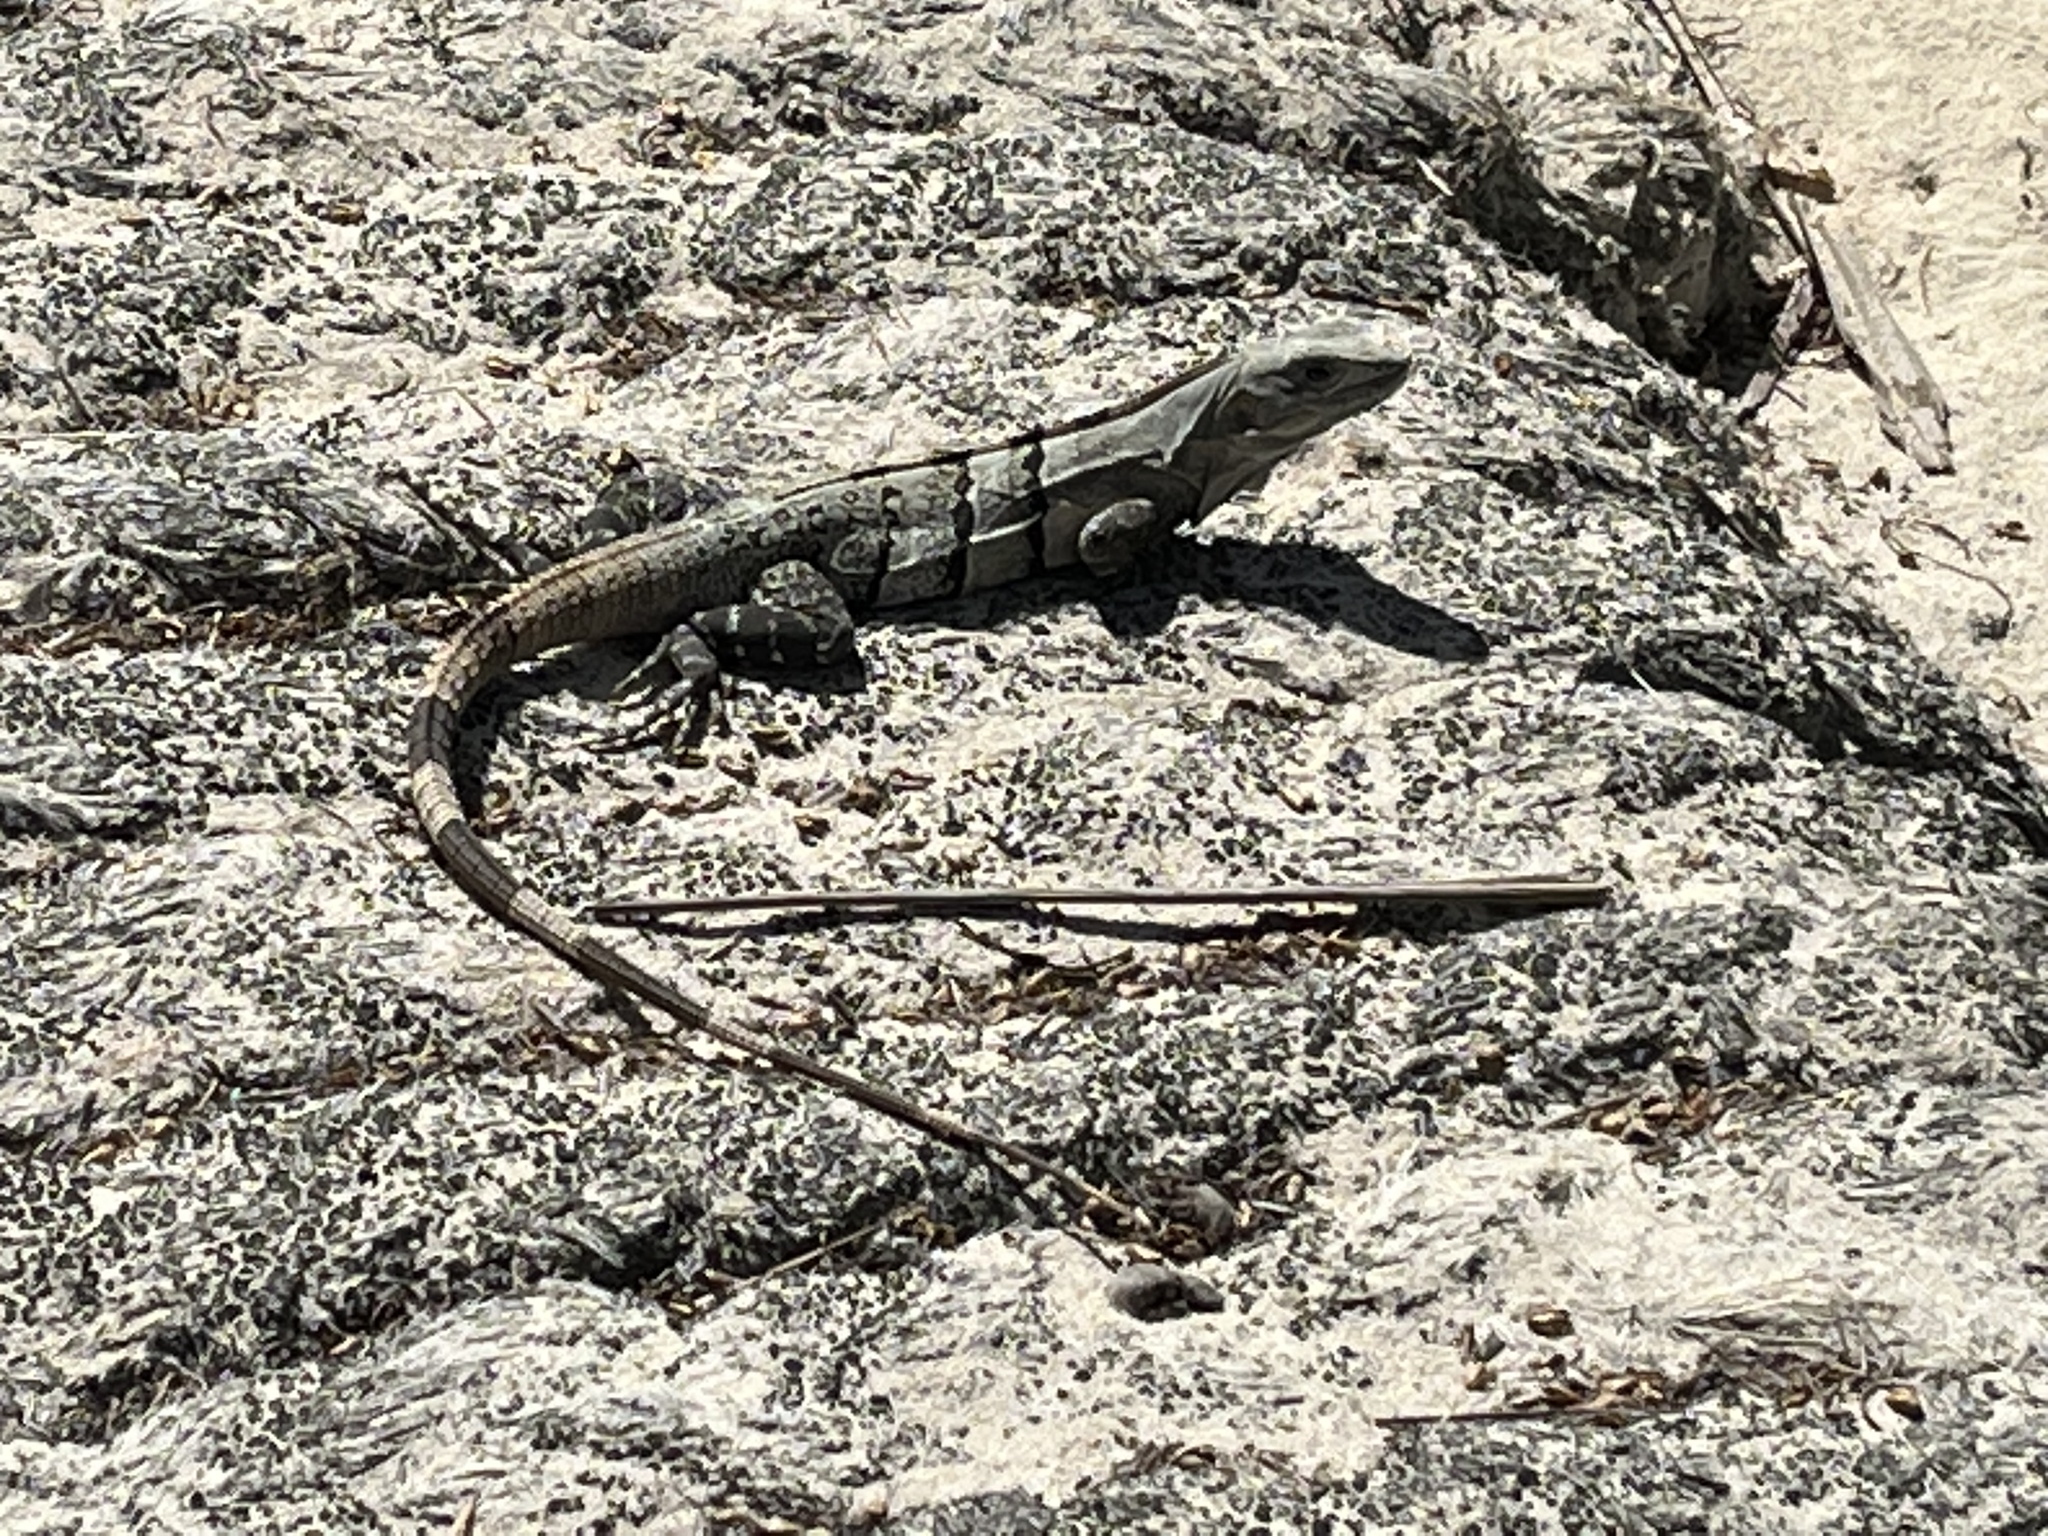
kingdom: Animalia
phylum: Chordata
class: Squamata
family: Iguanidae
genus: Ctenosaura
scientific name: Ctenosaura similis
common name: Black spiny-tailed iguana
